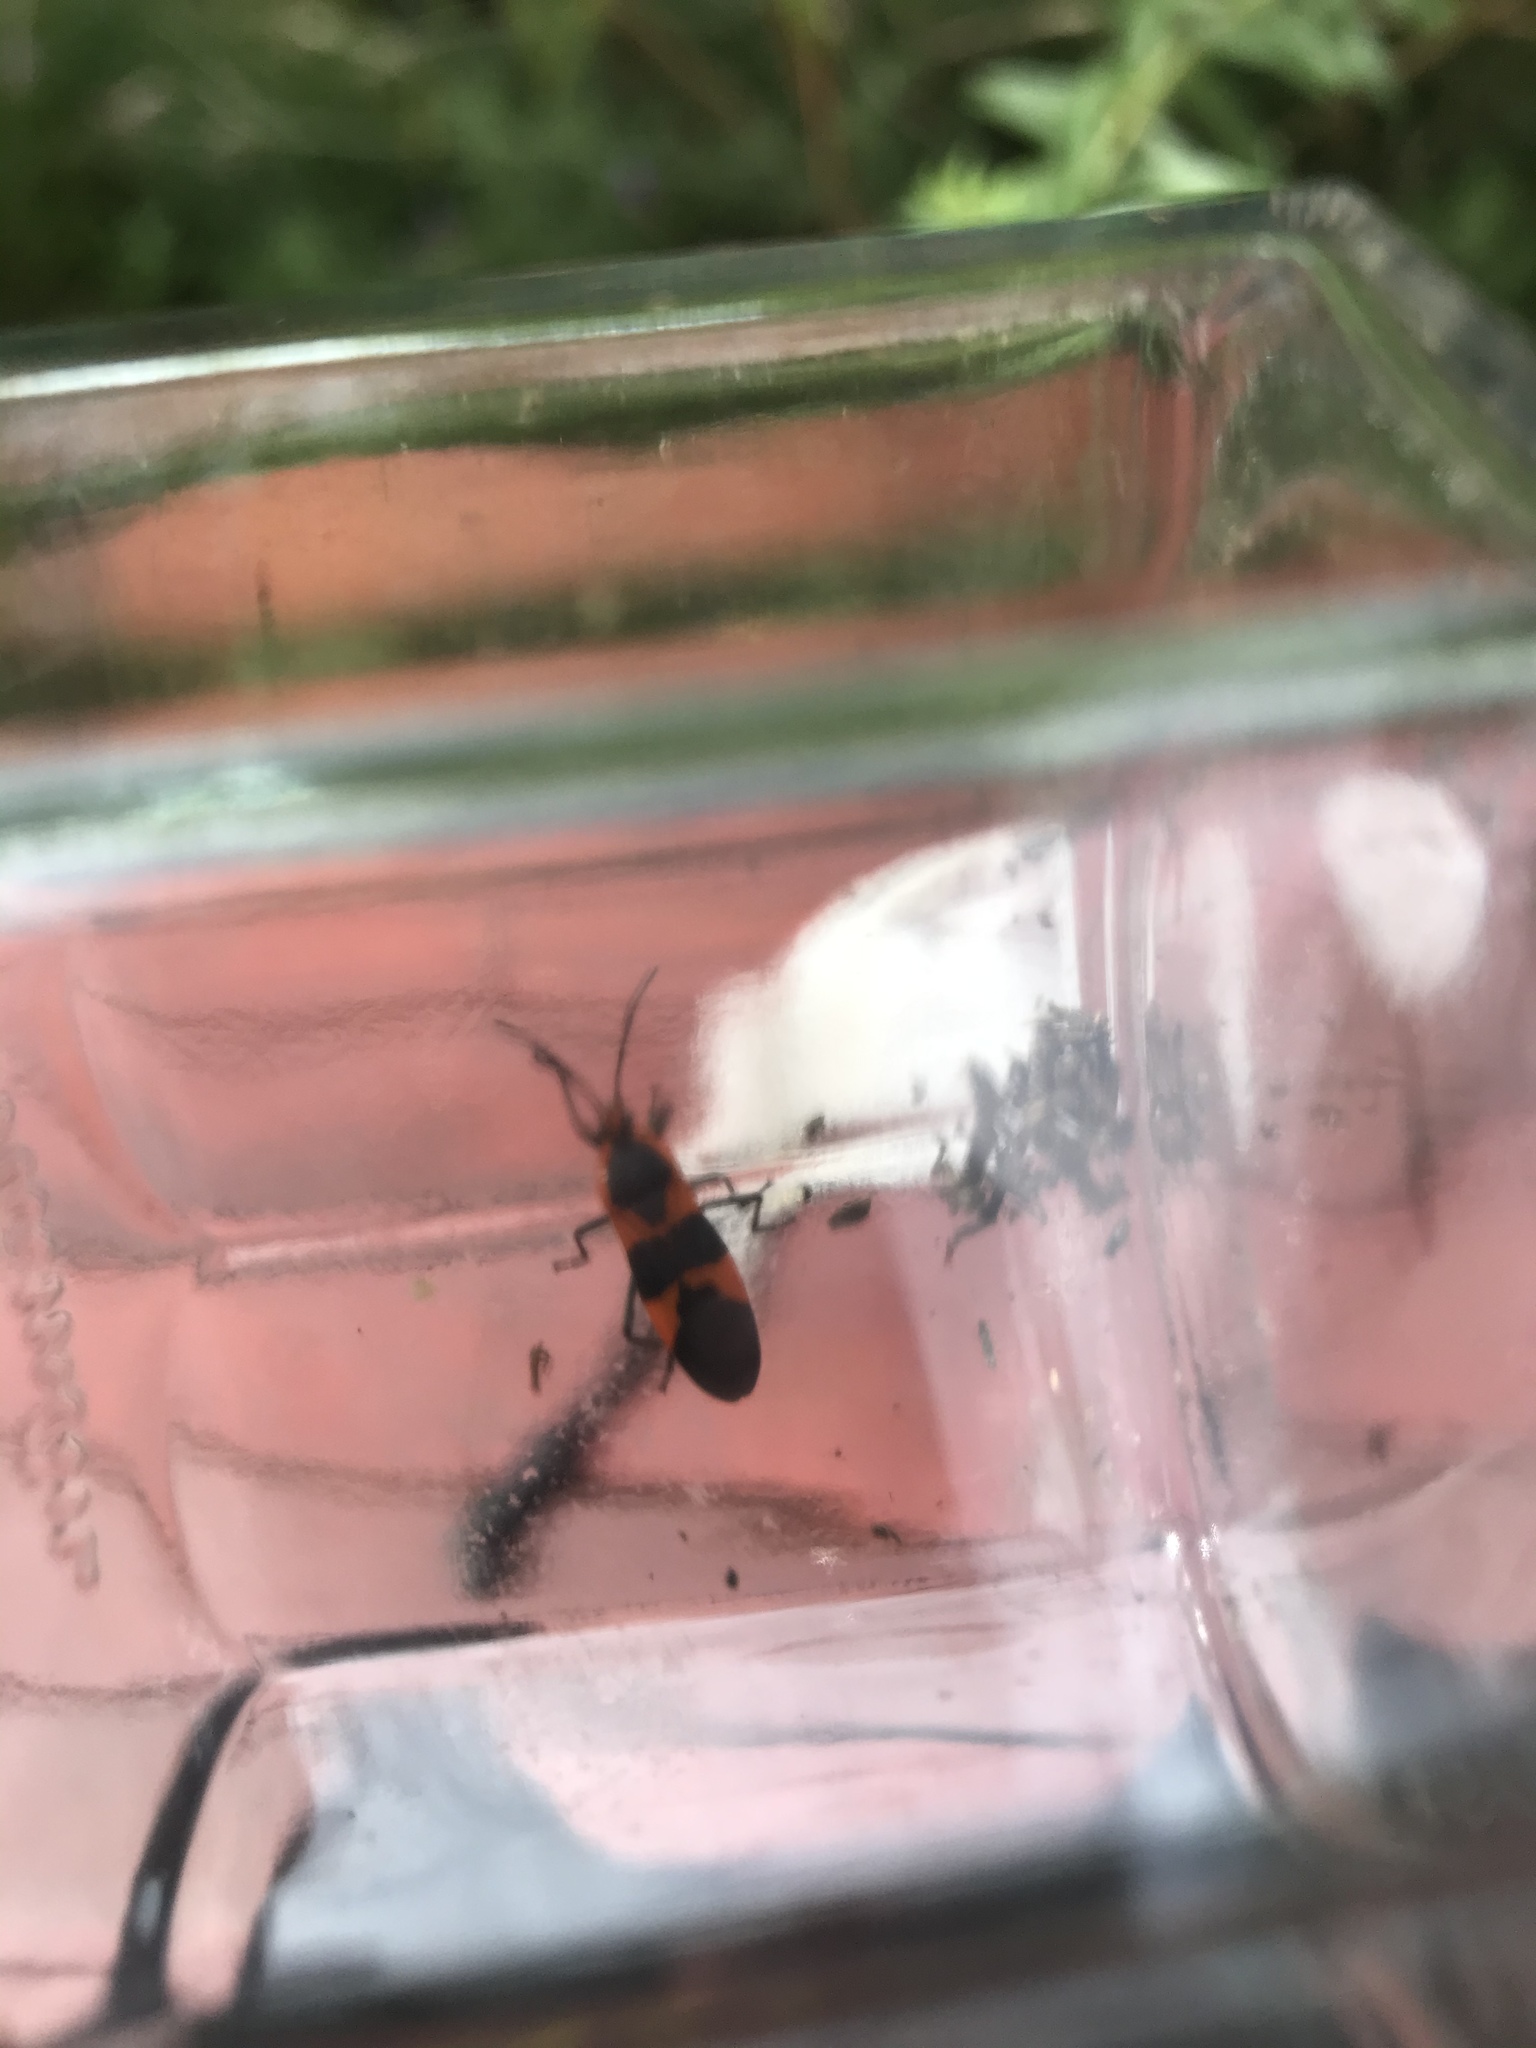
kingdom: Animalia
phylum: Arthropoda
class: Insecta
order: Hemiptera
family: Lygaeidae
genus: Oncopeltus
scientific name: Oncopeltus fasciatus
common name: Large milkweed bug
